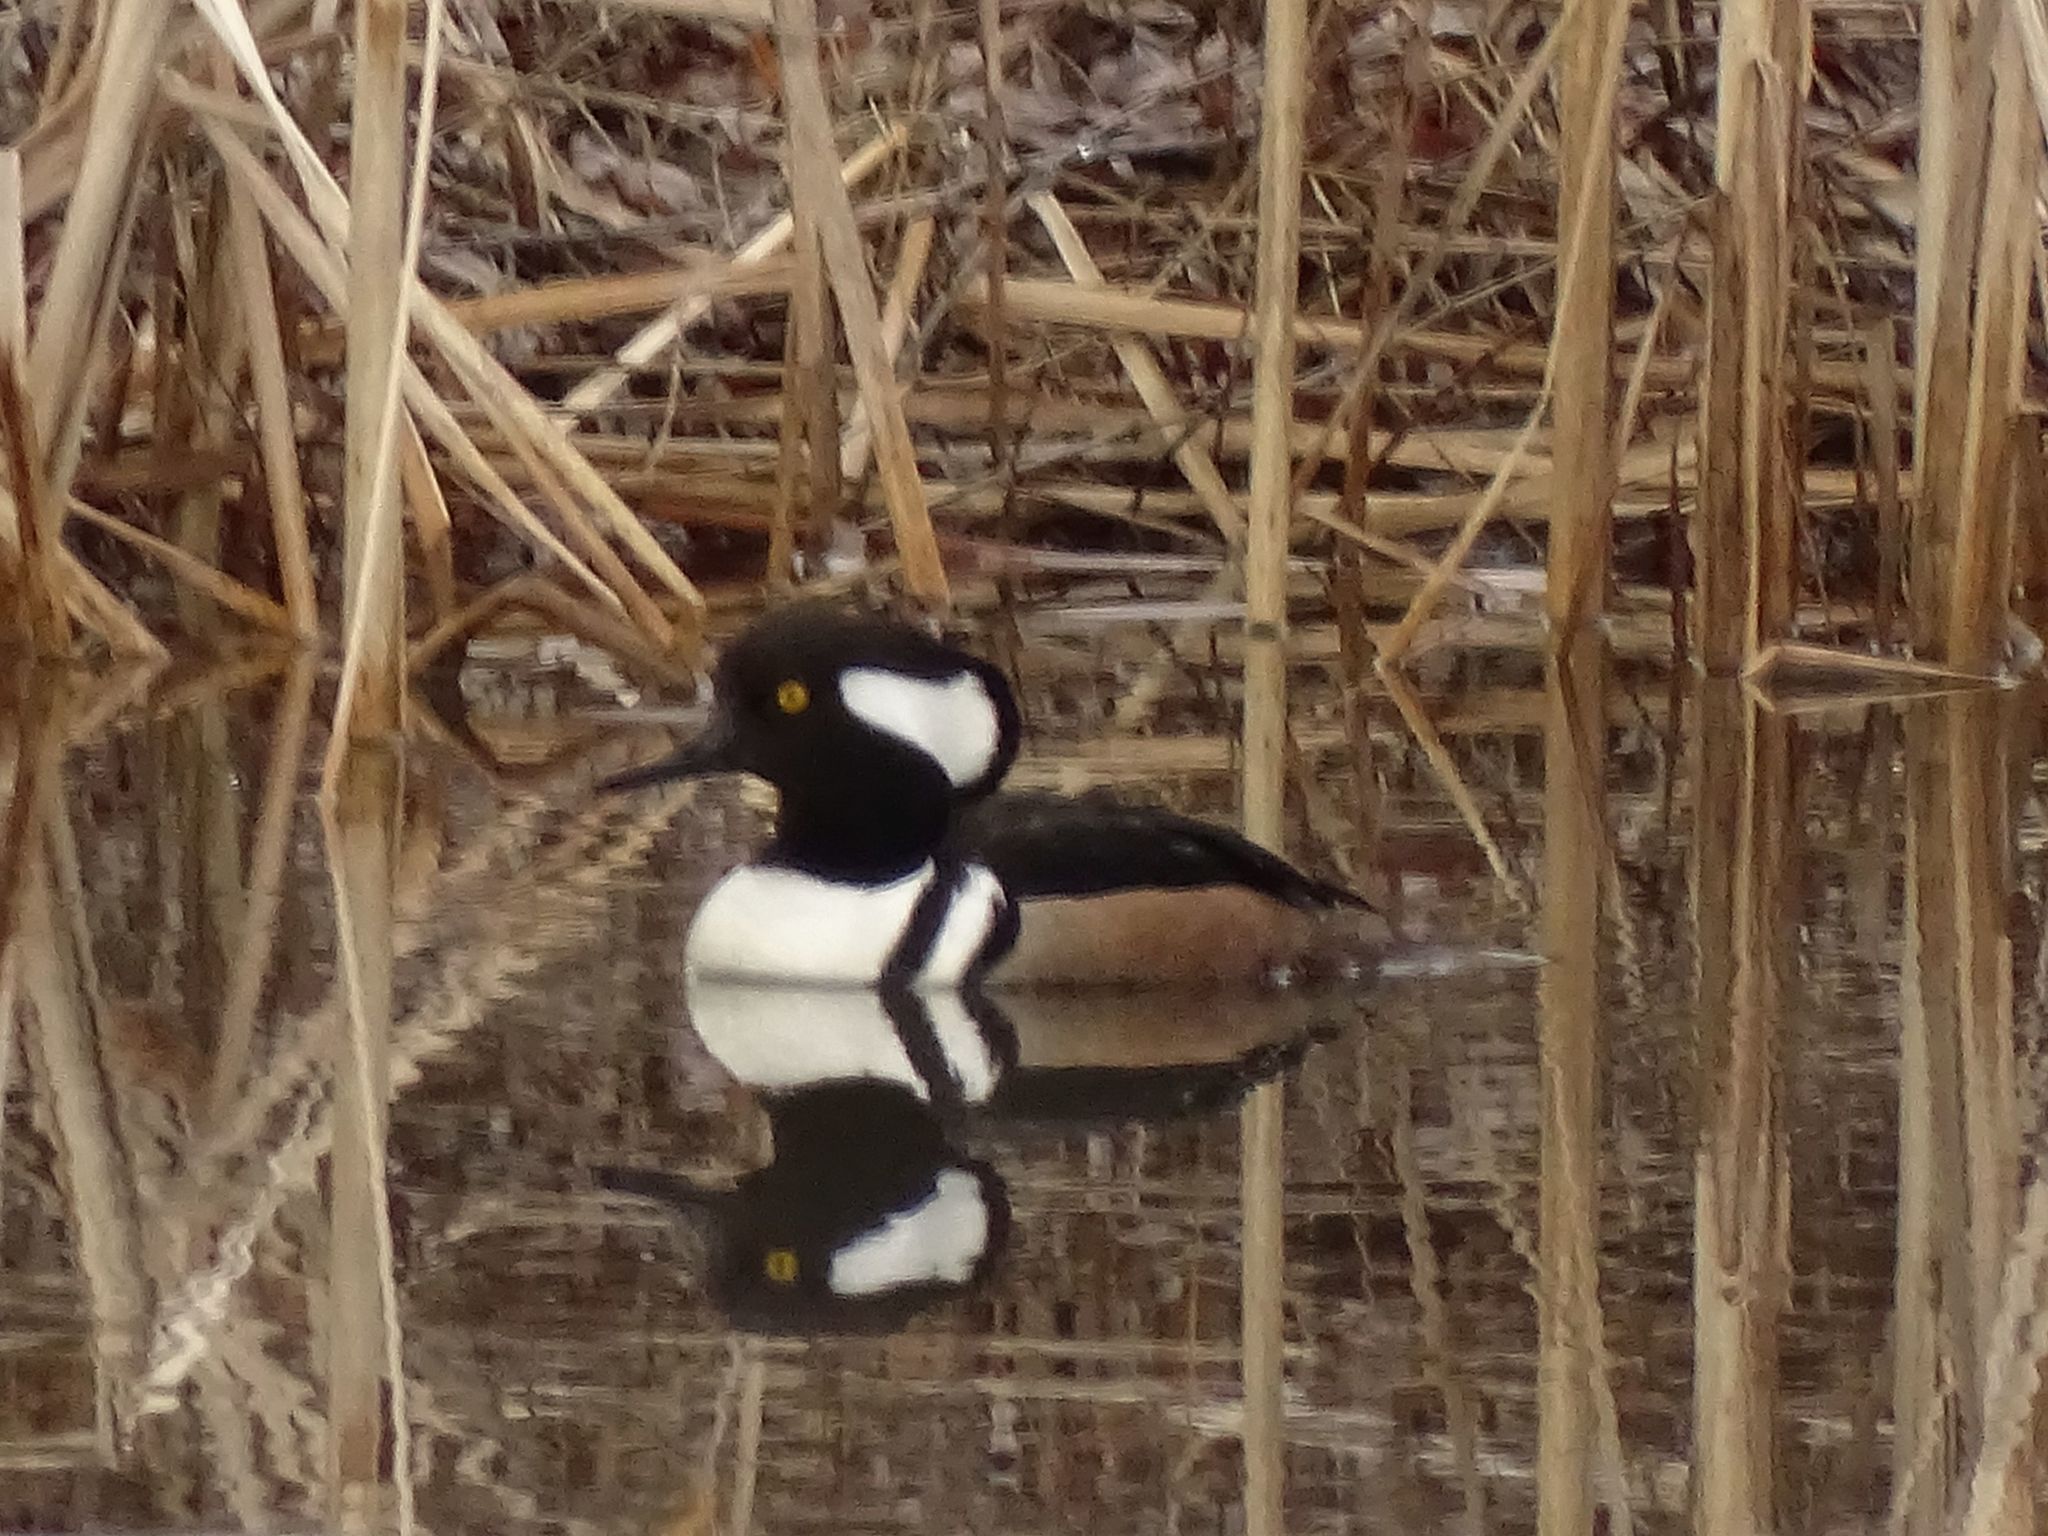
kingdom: Animalia
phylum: Chordata
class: Aves
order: Anseriformes
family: Anatidae
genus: Lophodytes
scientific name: Lophodytes cucullatus
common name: Hooded merganser
